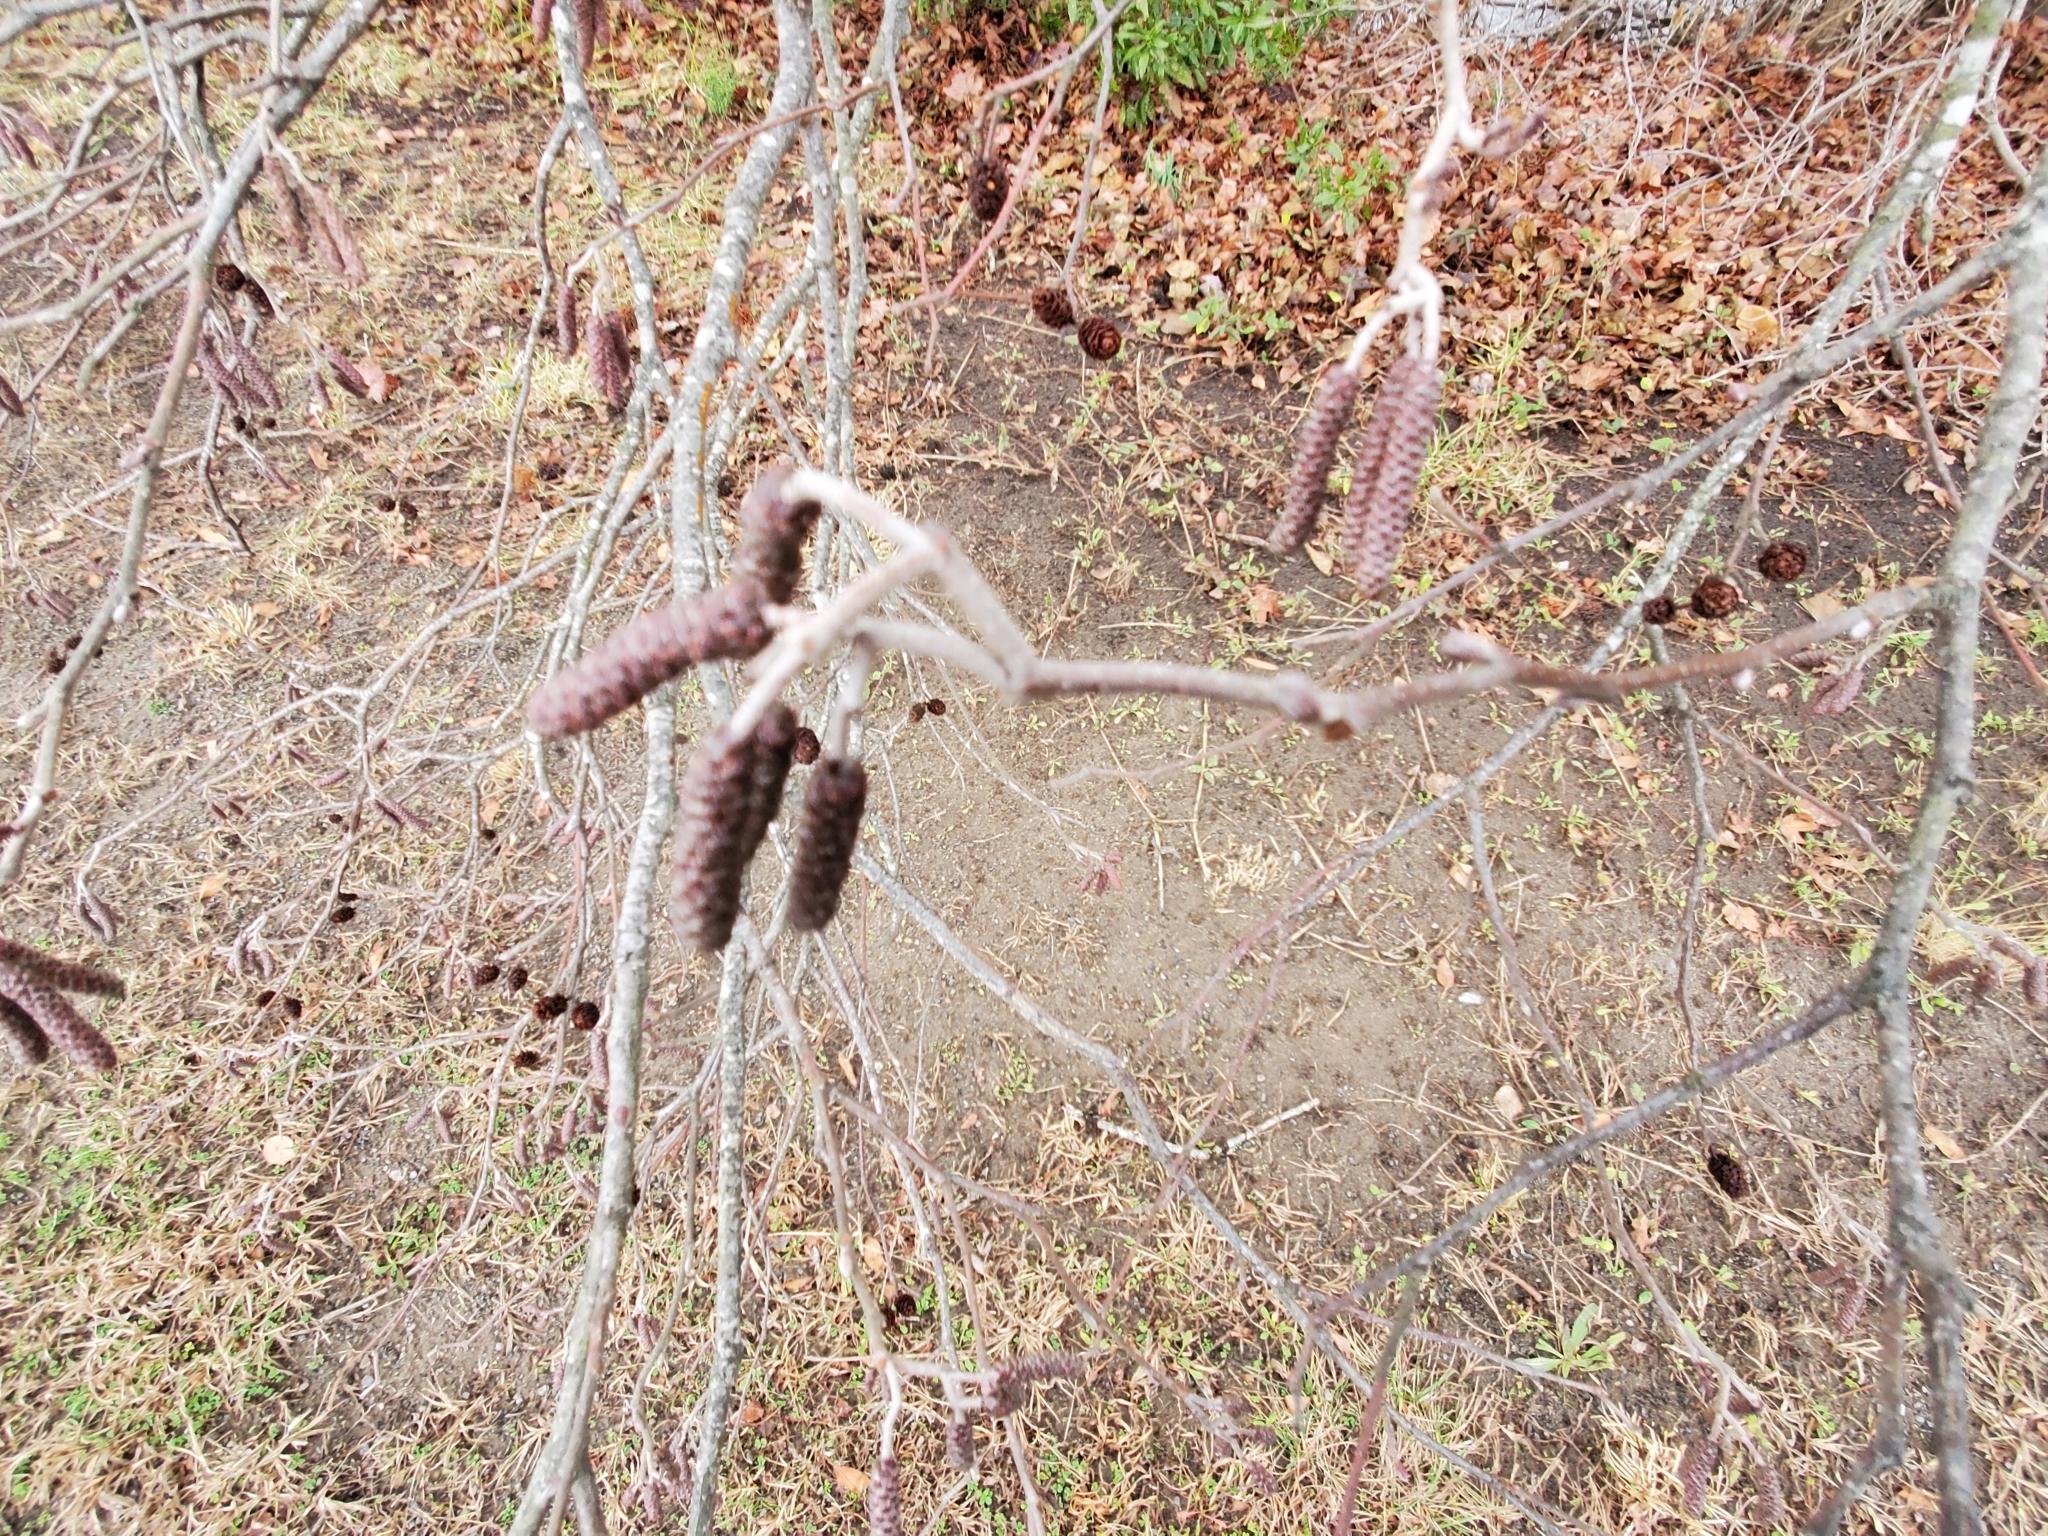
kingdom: Plantae
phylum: Tracheophyta
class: Magnoliopsida
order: Fagales
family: Betulaceae
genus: Alnus
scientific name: Alnus serrulata
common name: Hazel alder
